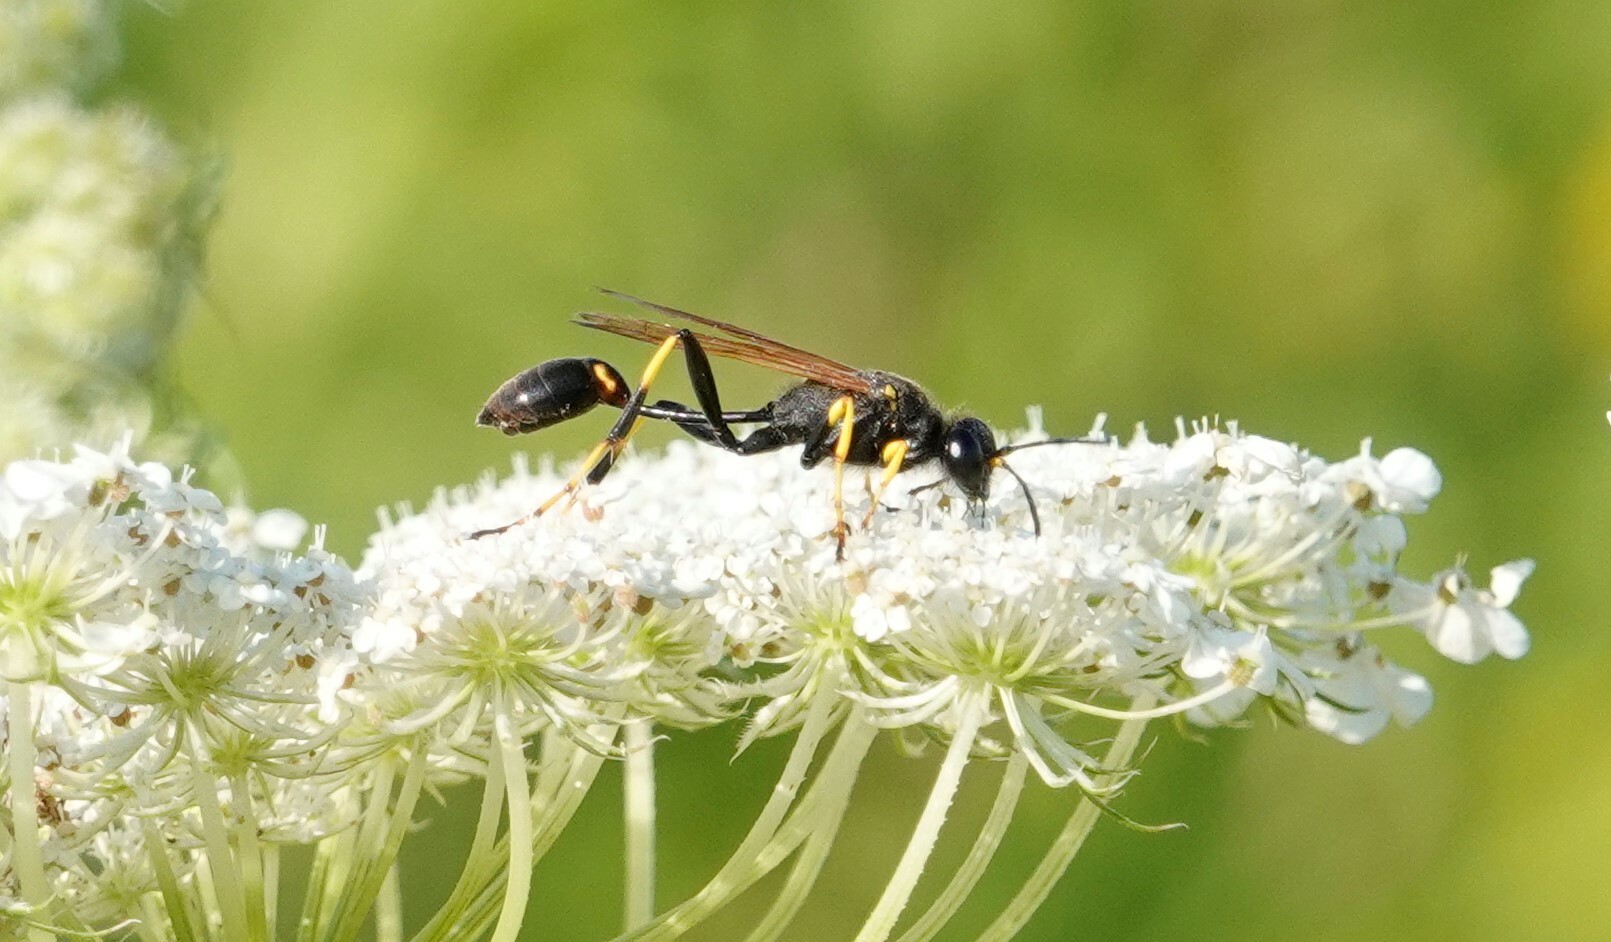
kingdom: Animalia
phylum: Arthropoda
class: Insecta
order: Hymenoptera
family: Sphecidae
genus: Sceliphron
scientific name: Sceliphron caementarium
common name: Mud dauber
